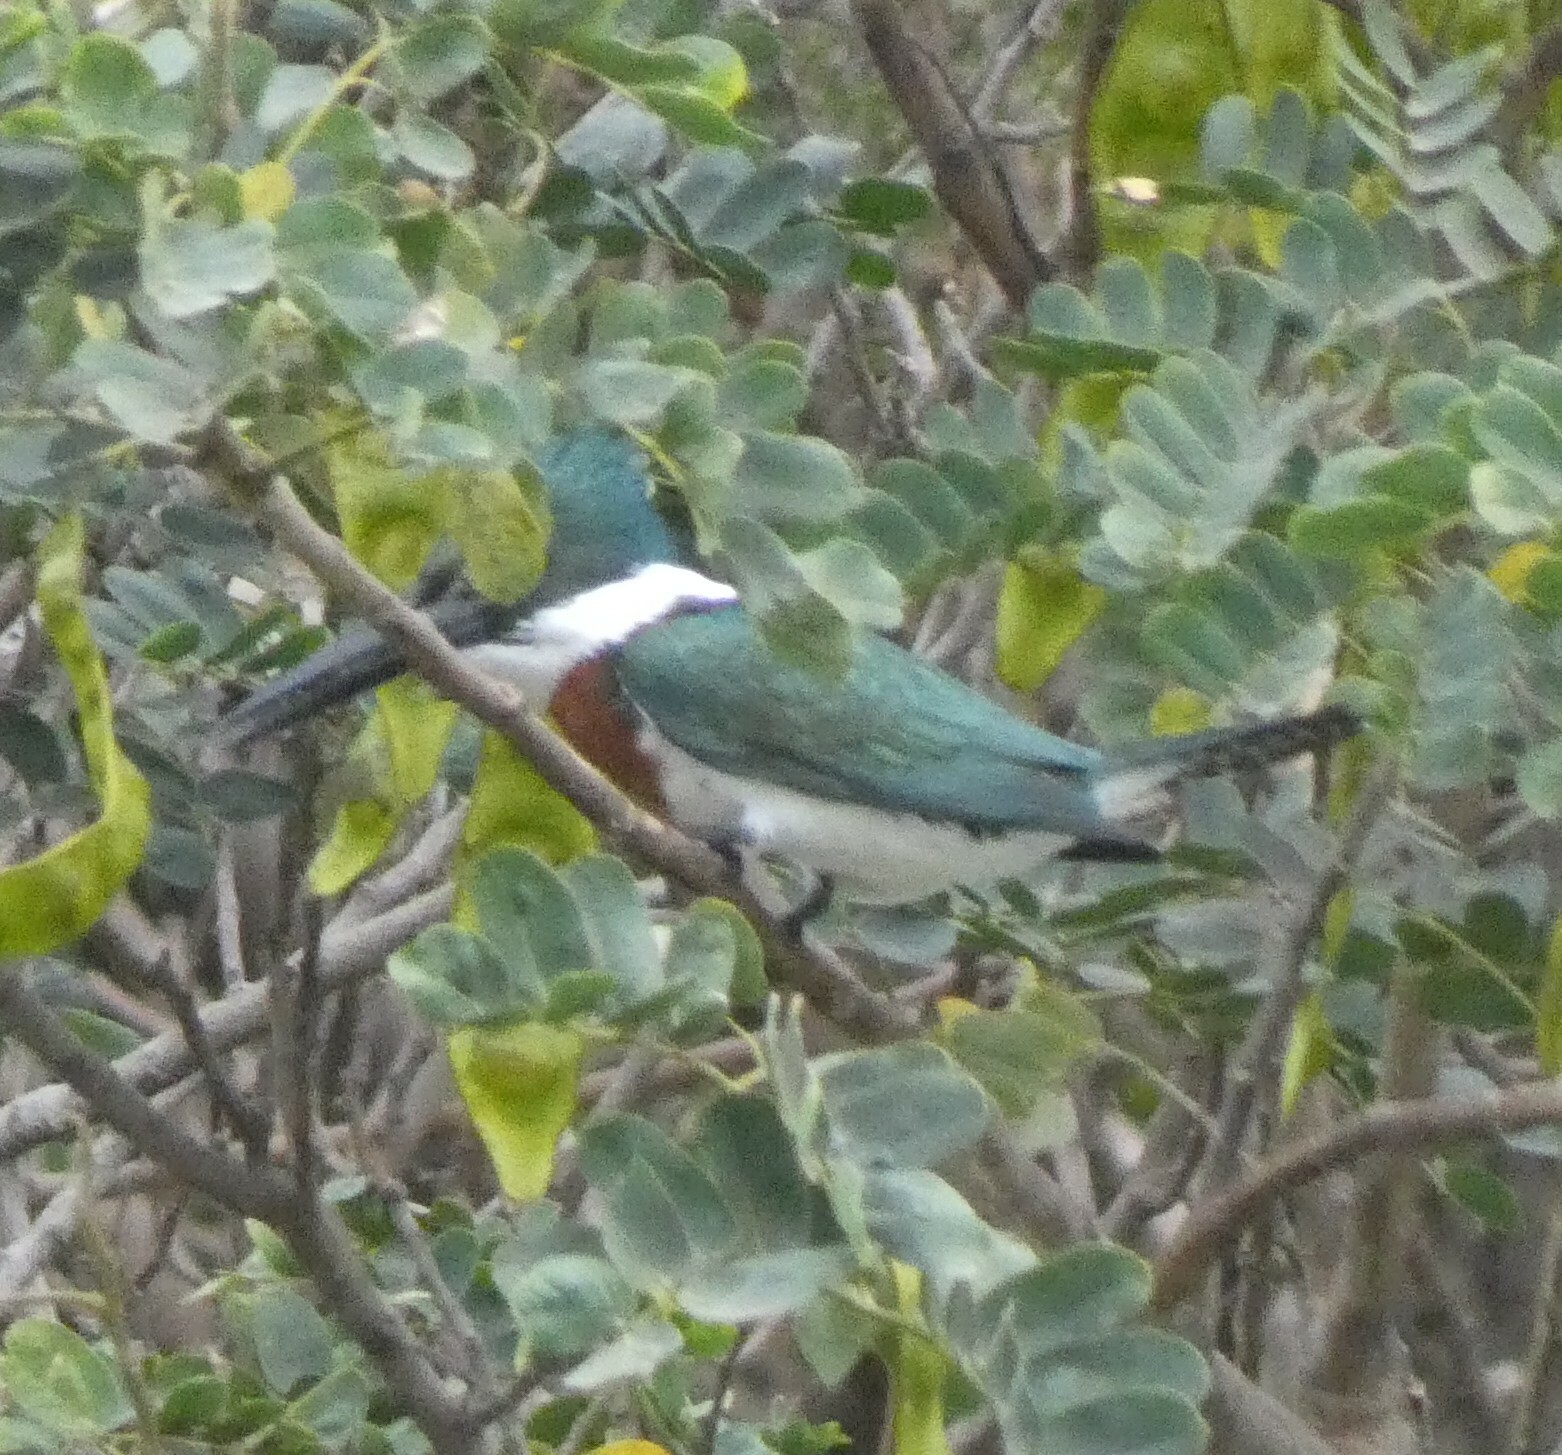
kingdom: Animalia
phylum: Chordata
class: Aves
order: Coraciiformes
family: Alcedinidae
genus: Chloroceryle
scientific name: Chloroceryle amazona
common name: Amazon kingfisher
